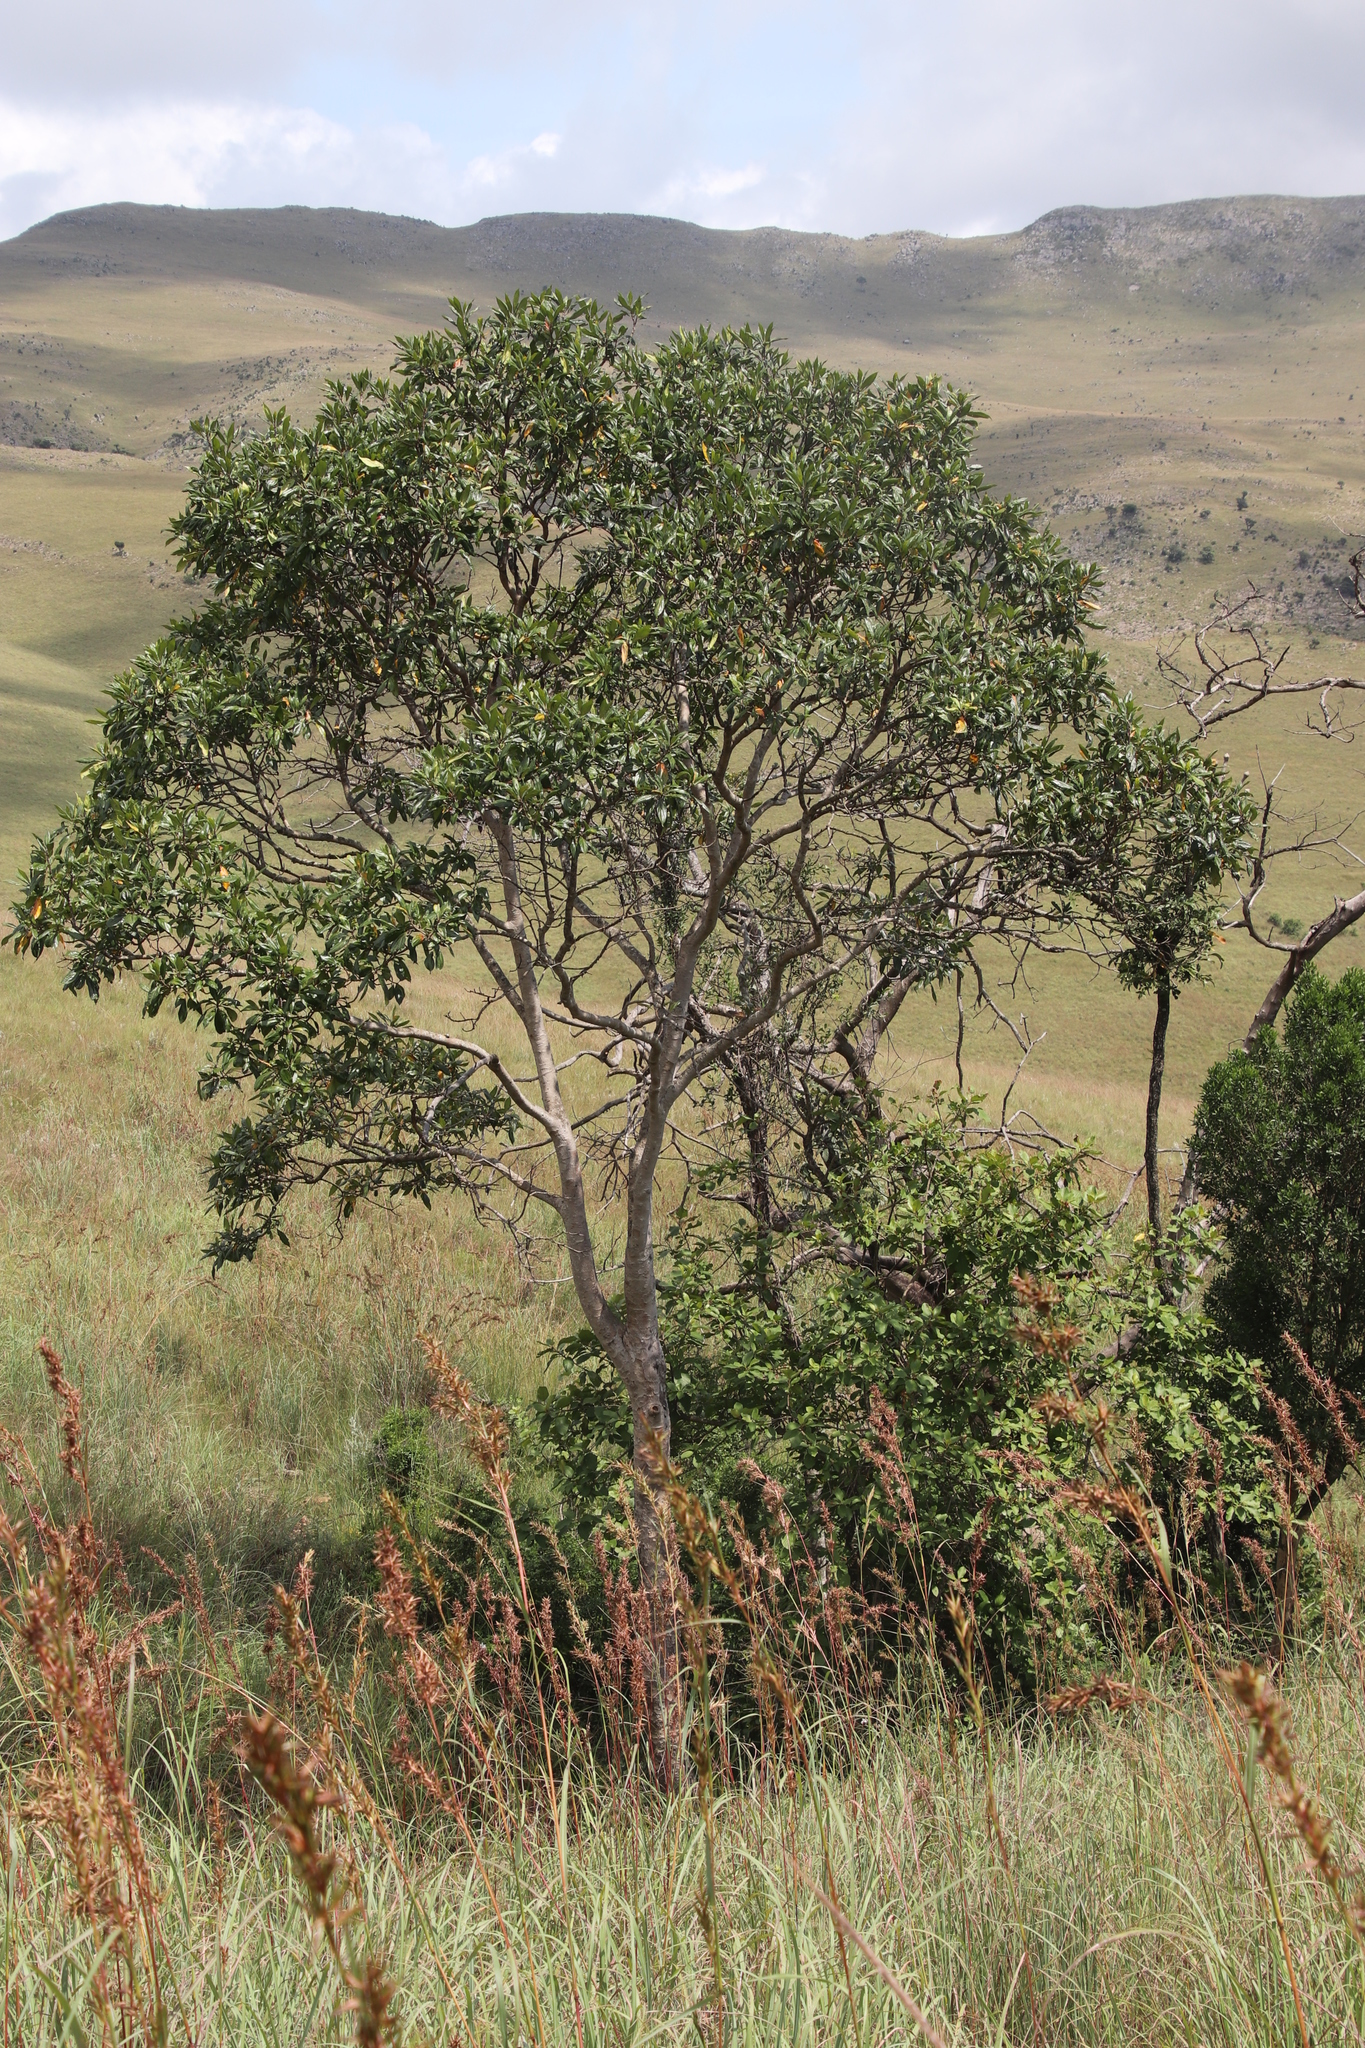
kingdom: Plantae
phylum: Tracheophyta
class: Magnoliopsida
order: Myrtales
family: Myrtaceae
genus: Heteropyxis
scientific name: Heteropyxis canescens
